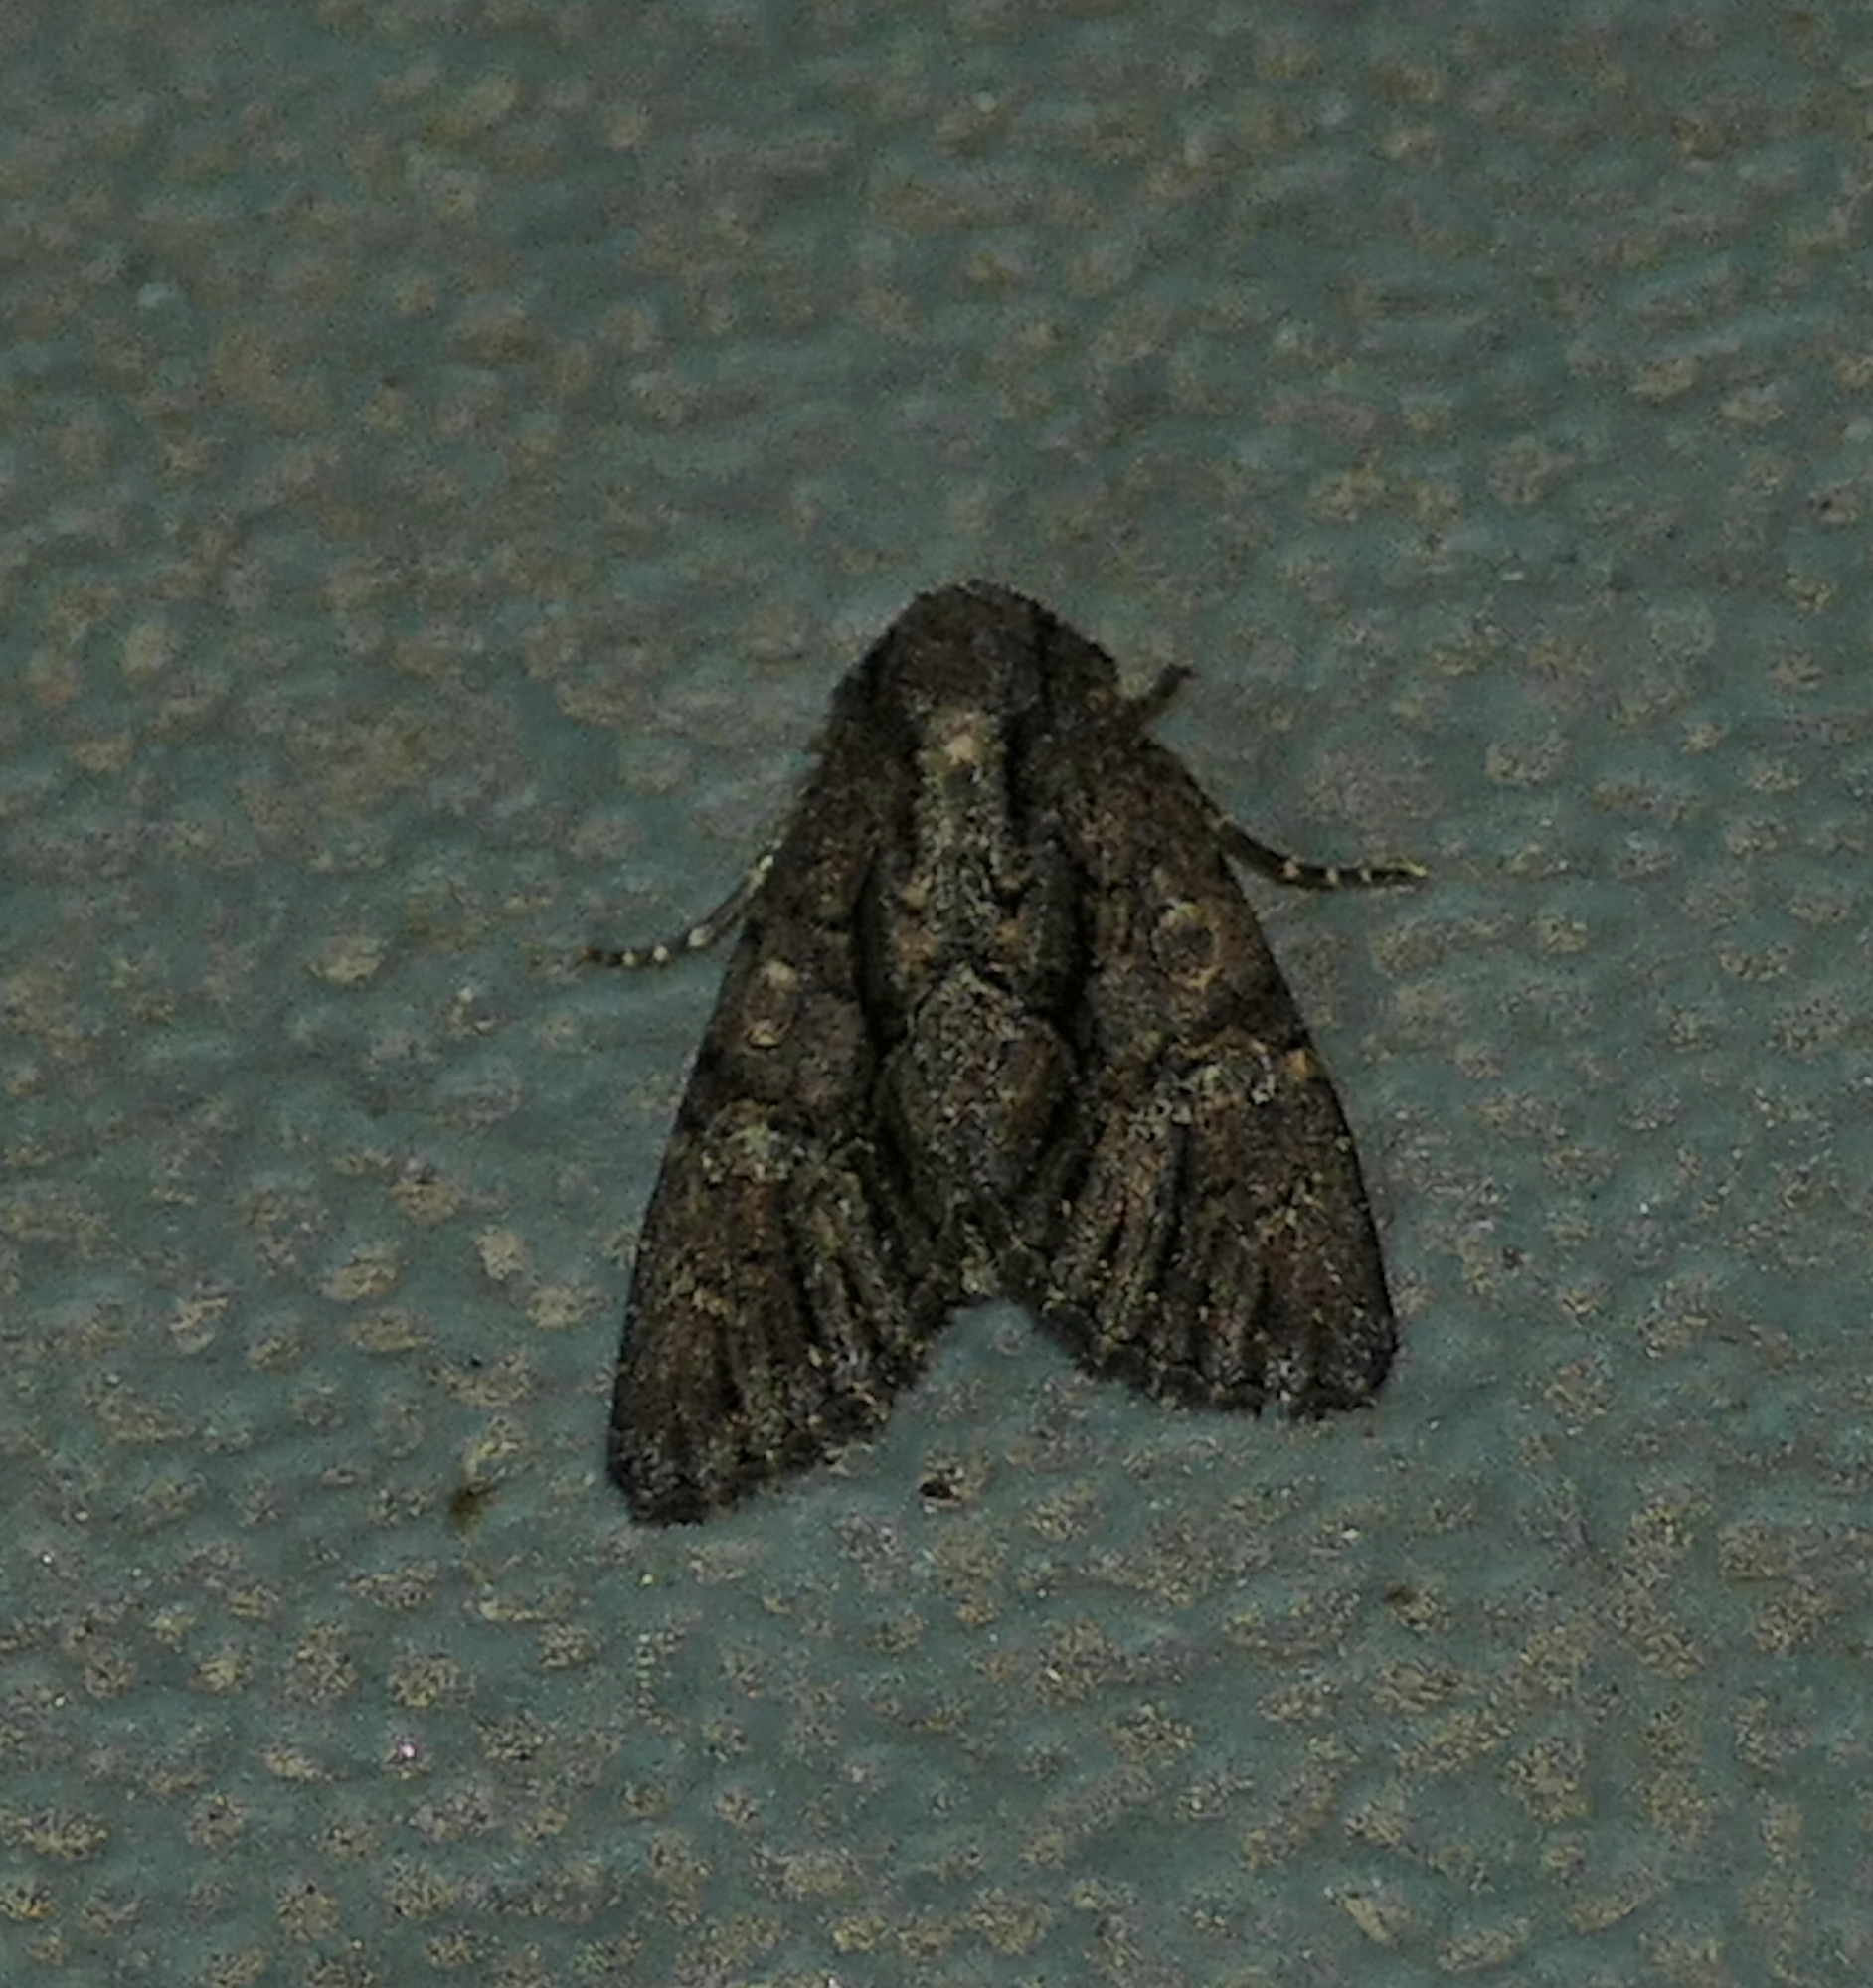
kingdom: Animalia
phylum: Arthropoda
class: Insecta
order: Lepidoptera
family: Noctuidae
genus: Apamea
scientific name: Apamea burgessi
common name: Burgess' apamea moth
